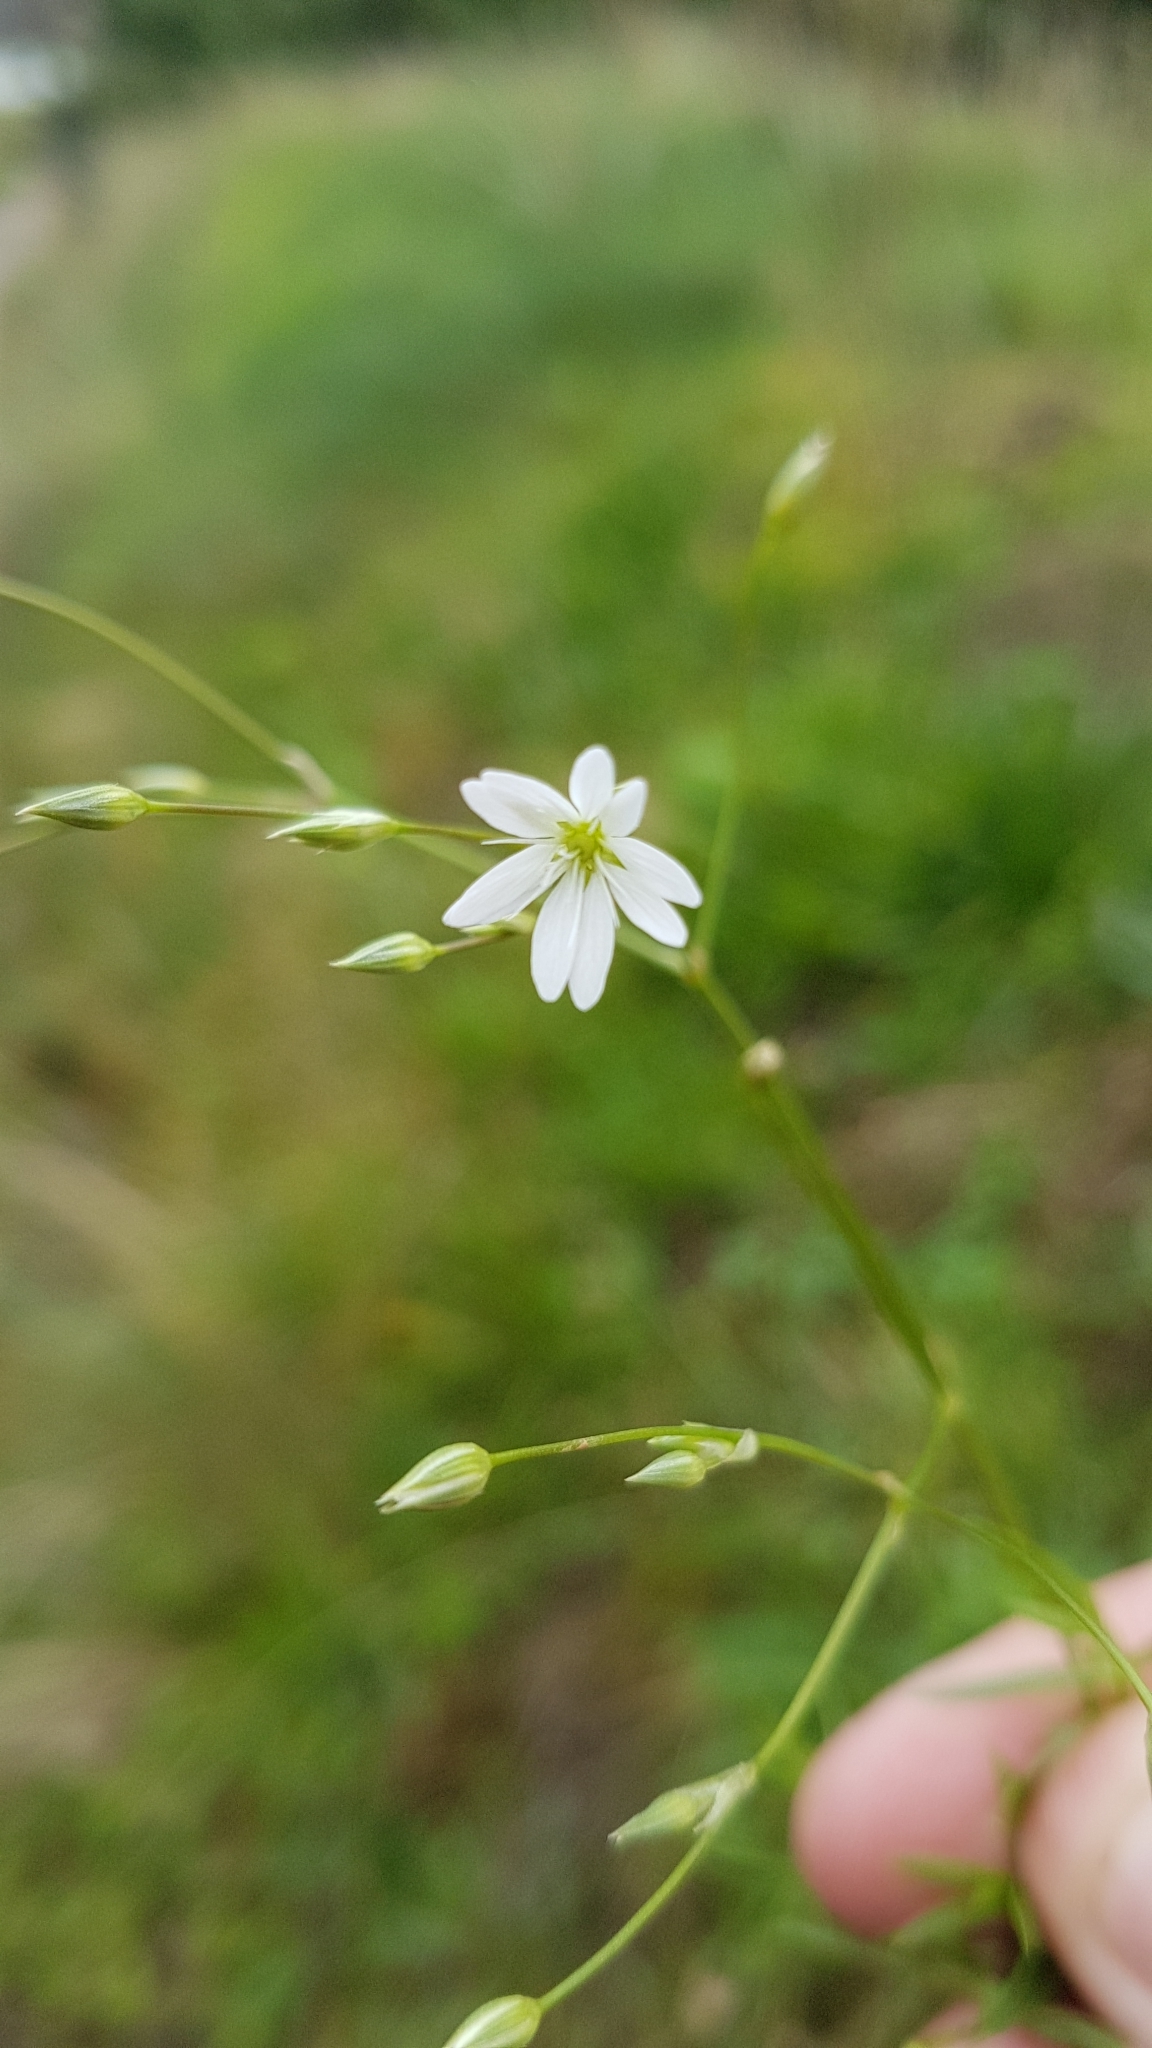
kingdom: Plantae
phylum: Tracheophyta
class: Magnoliopsida
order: Caryophyllales
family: Caryophyllaceae
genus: Stellaria
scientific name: Stellaria graminea
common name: Grass-like starwort
